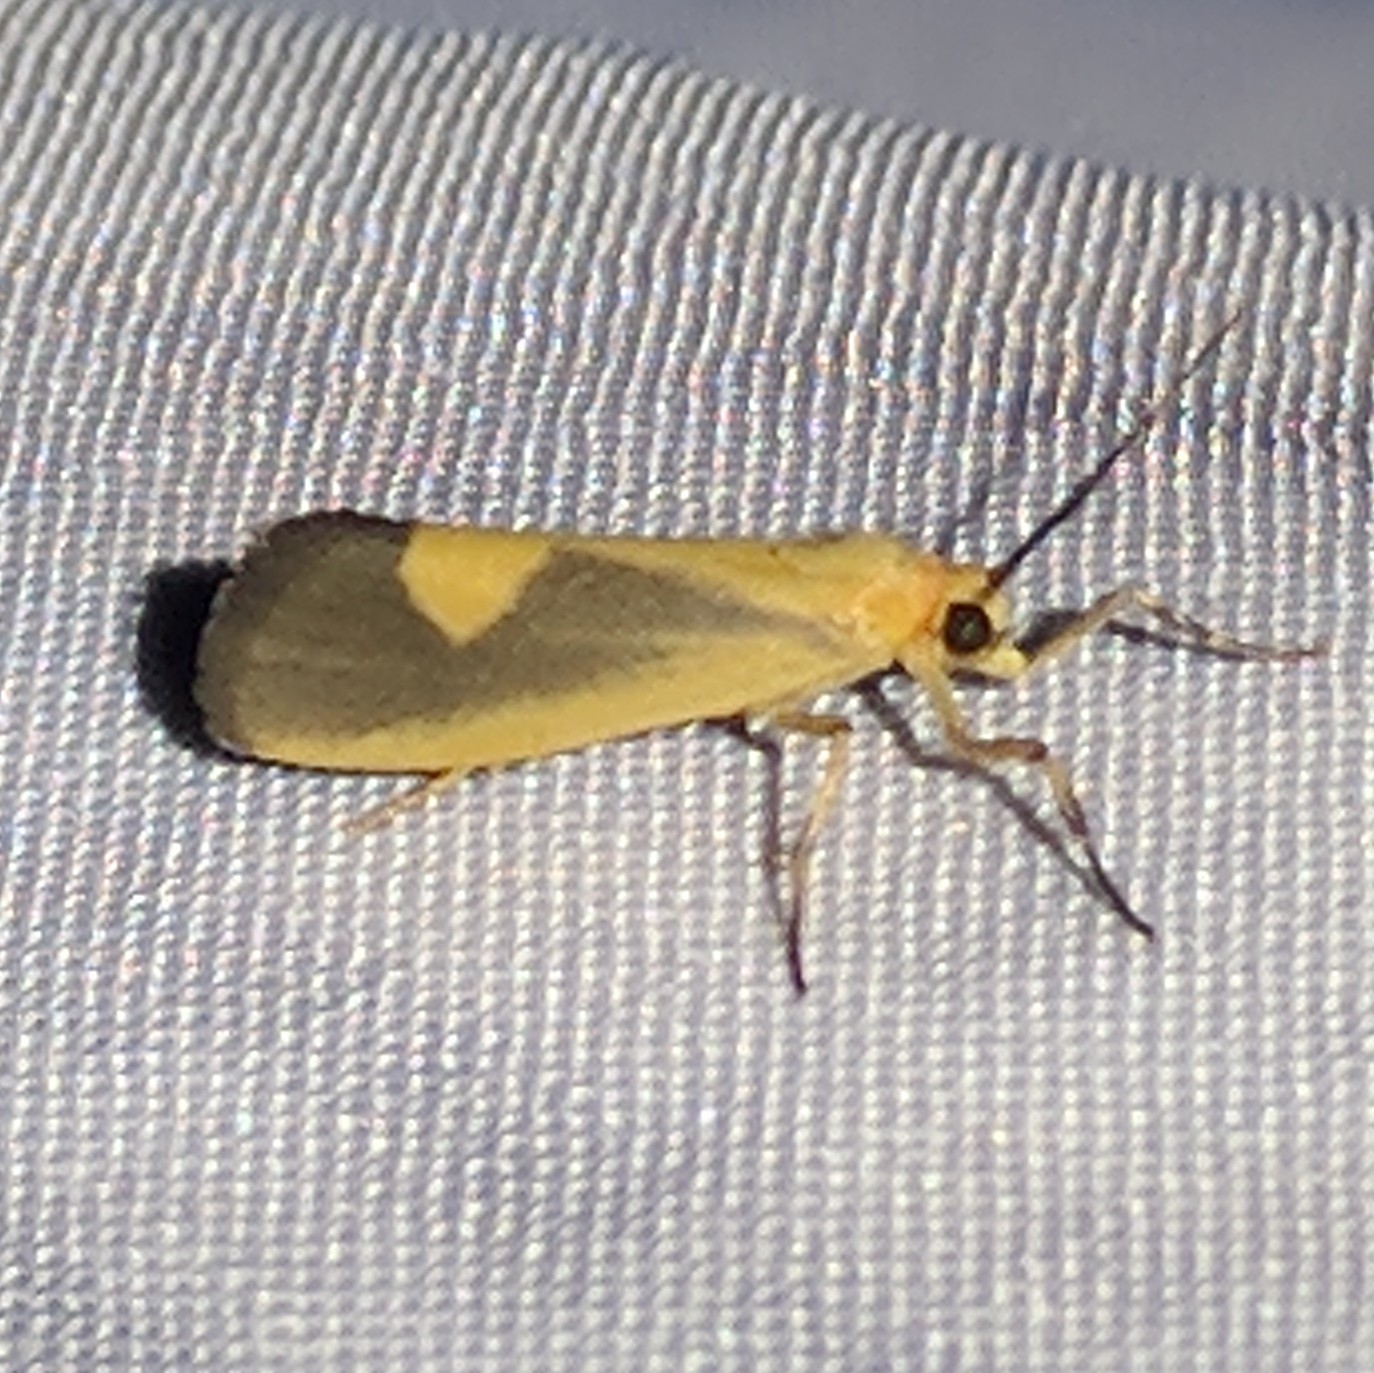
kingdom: Animalia
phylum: Arthropoda
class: Insecta
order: Lepidoptera
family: Erebidae
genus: Cisthene
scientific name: Cisthene plumbea
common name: Lead colored lichen moth
